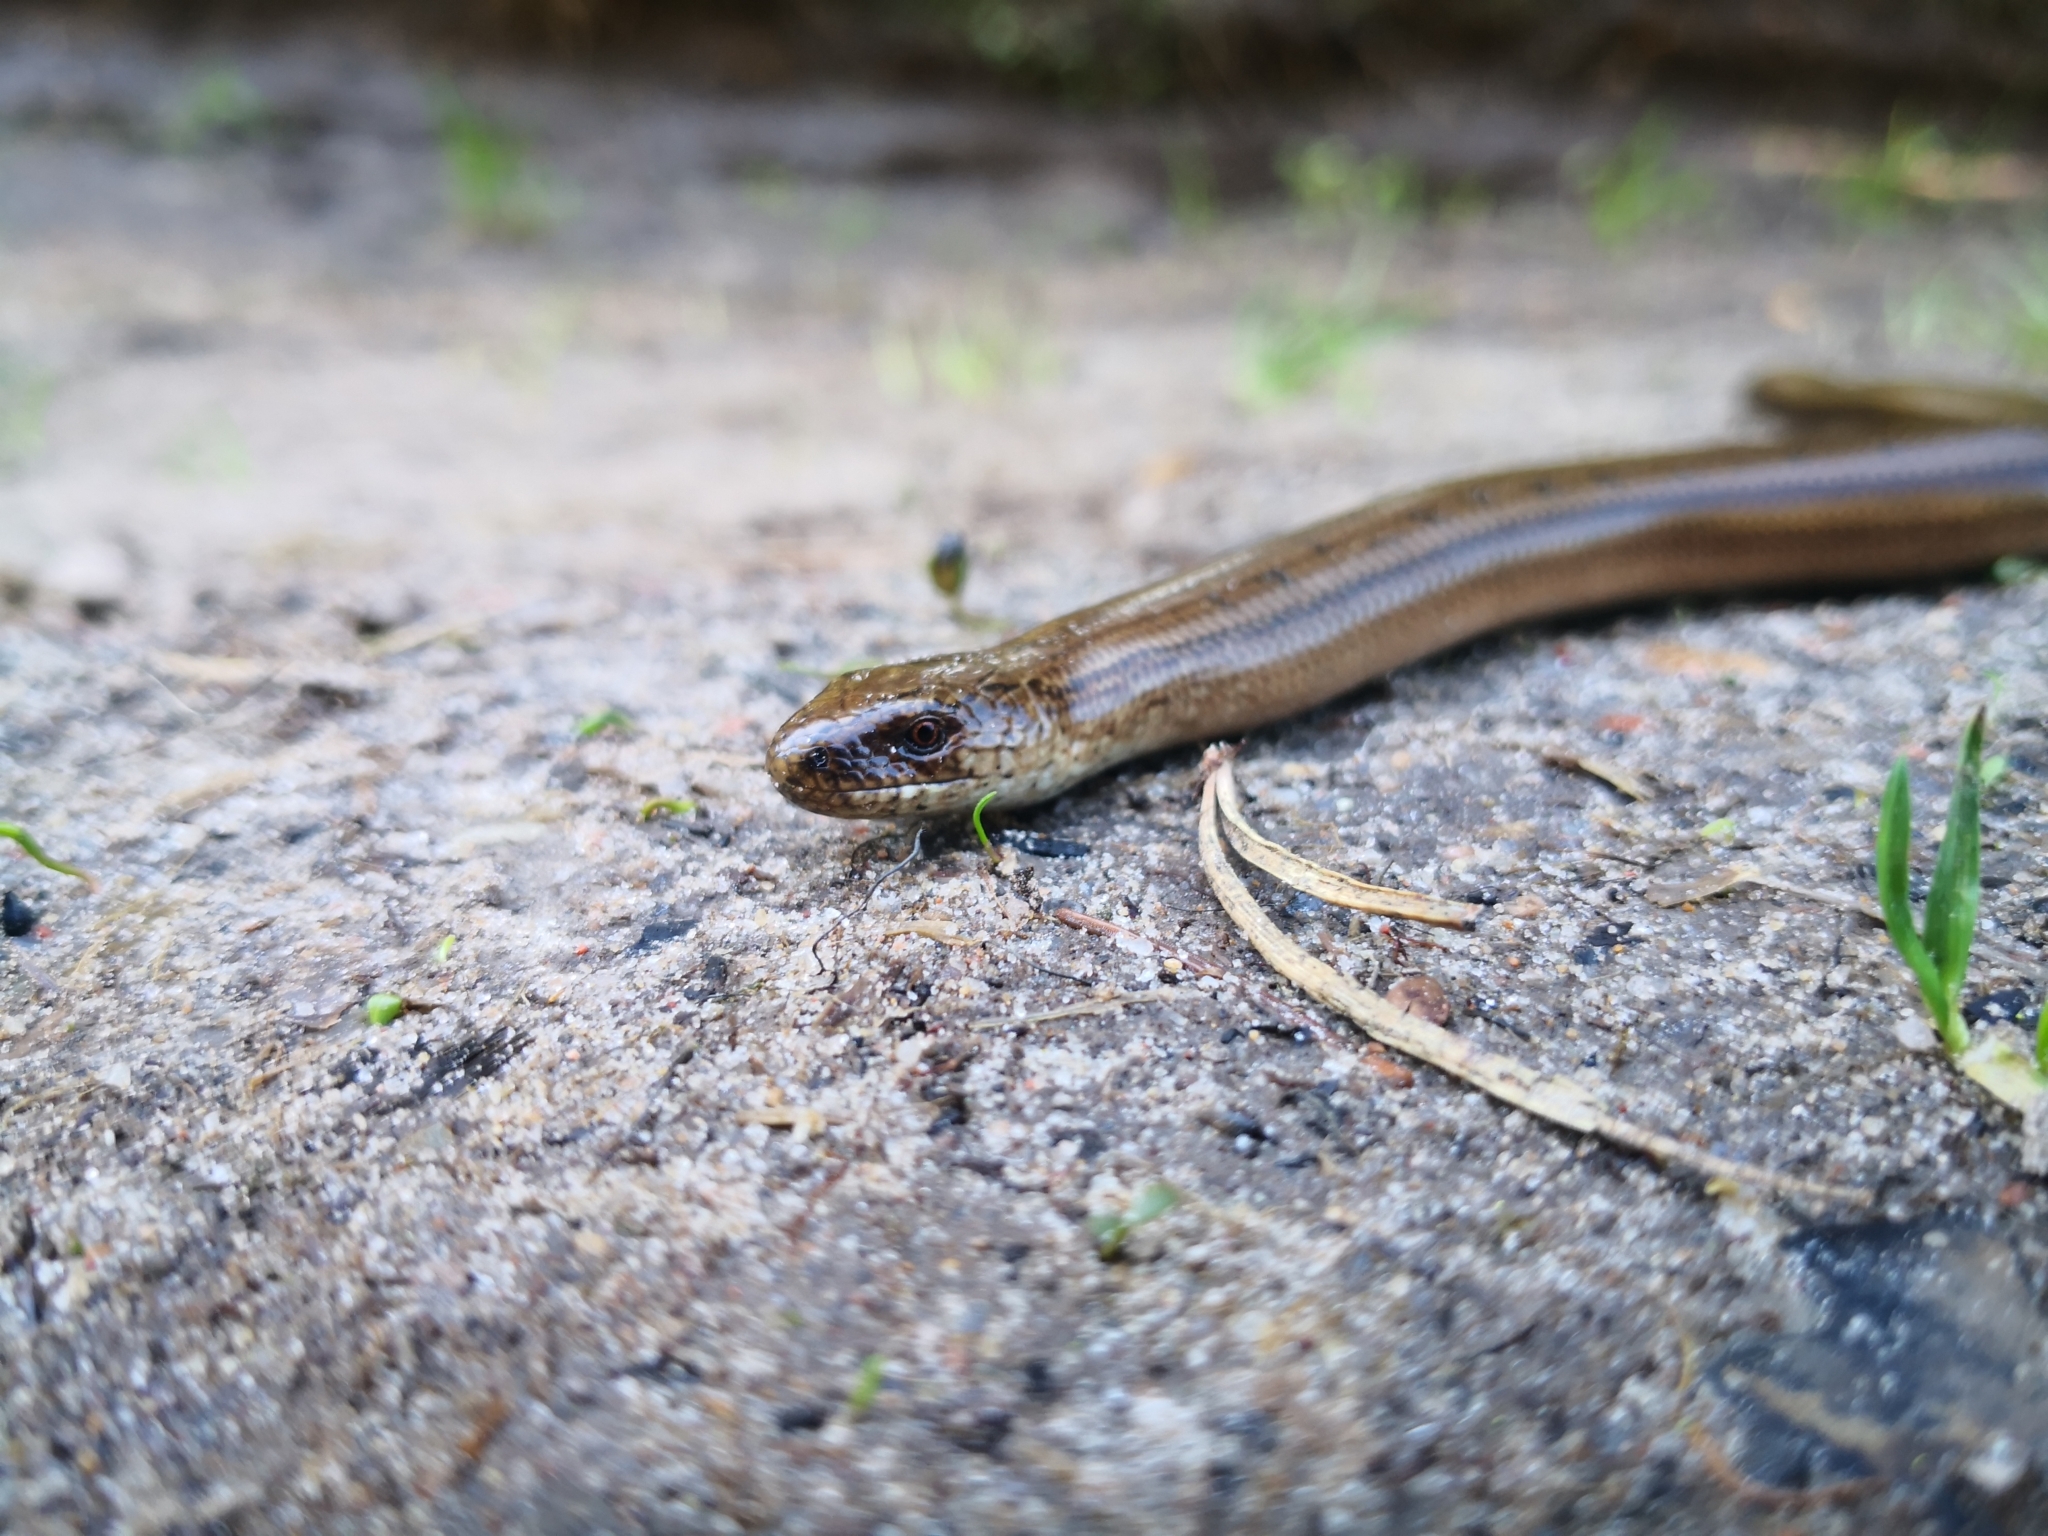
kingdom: Animalia
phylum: Chordata
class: Squamata
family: Anguidae
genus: Anguis
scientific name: Anguis colchica
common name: Slow worm
